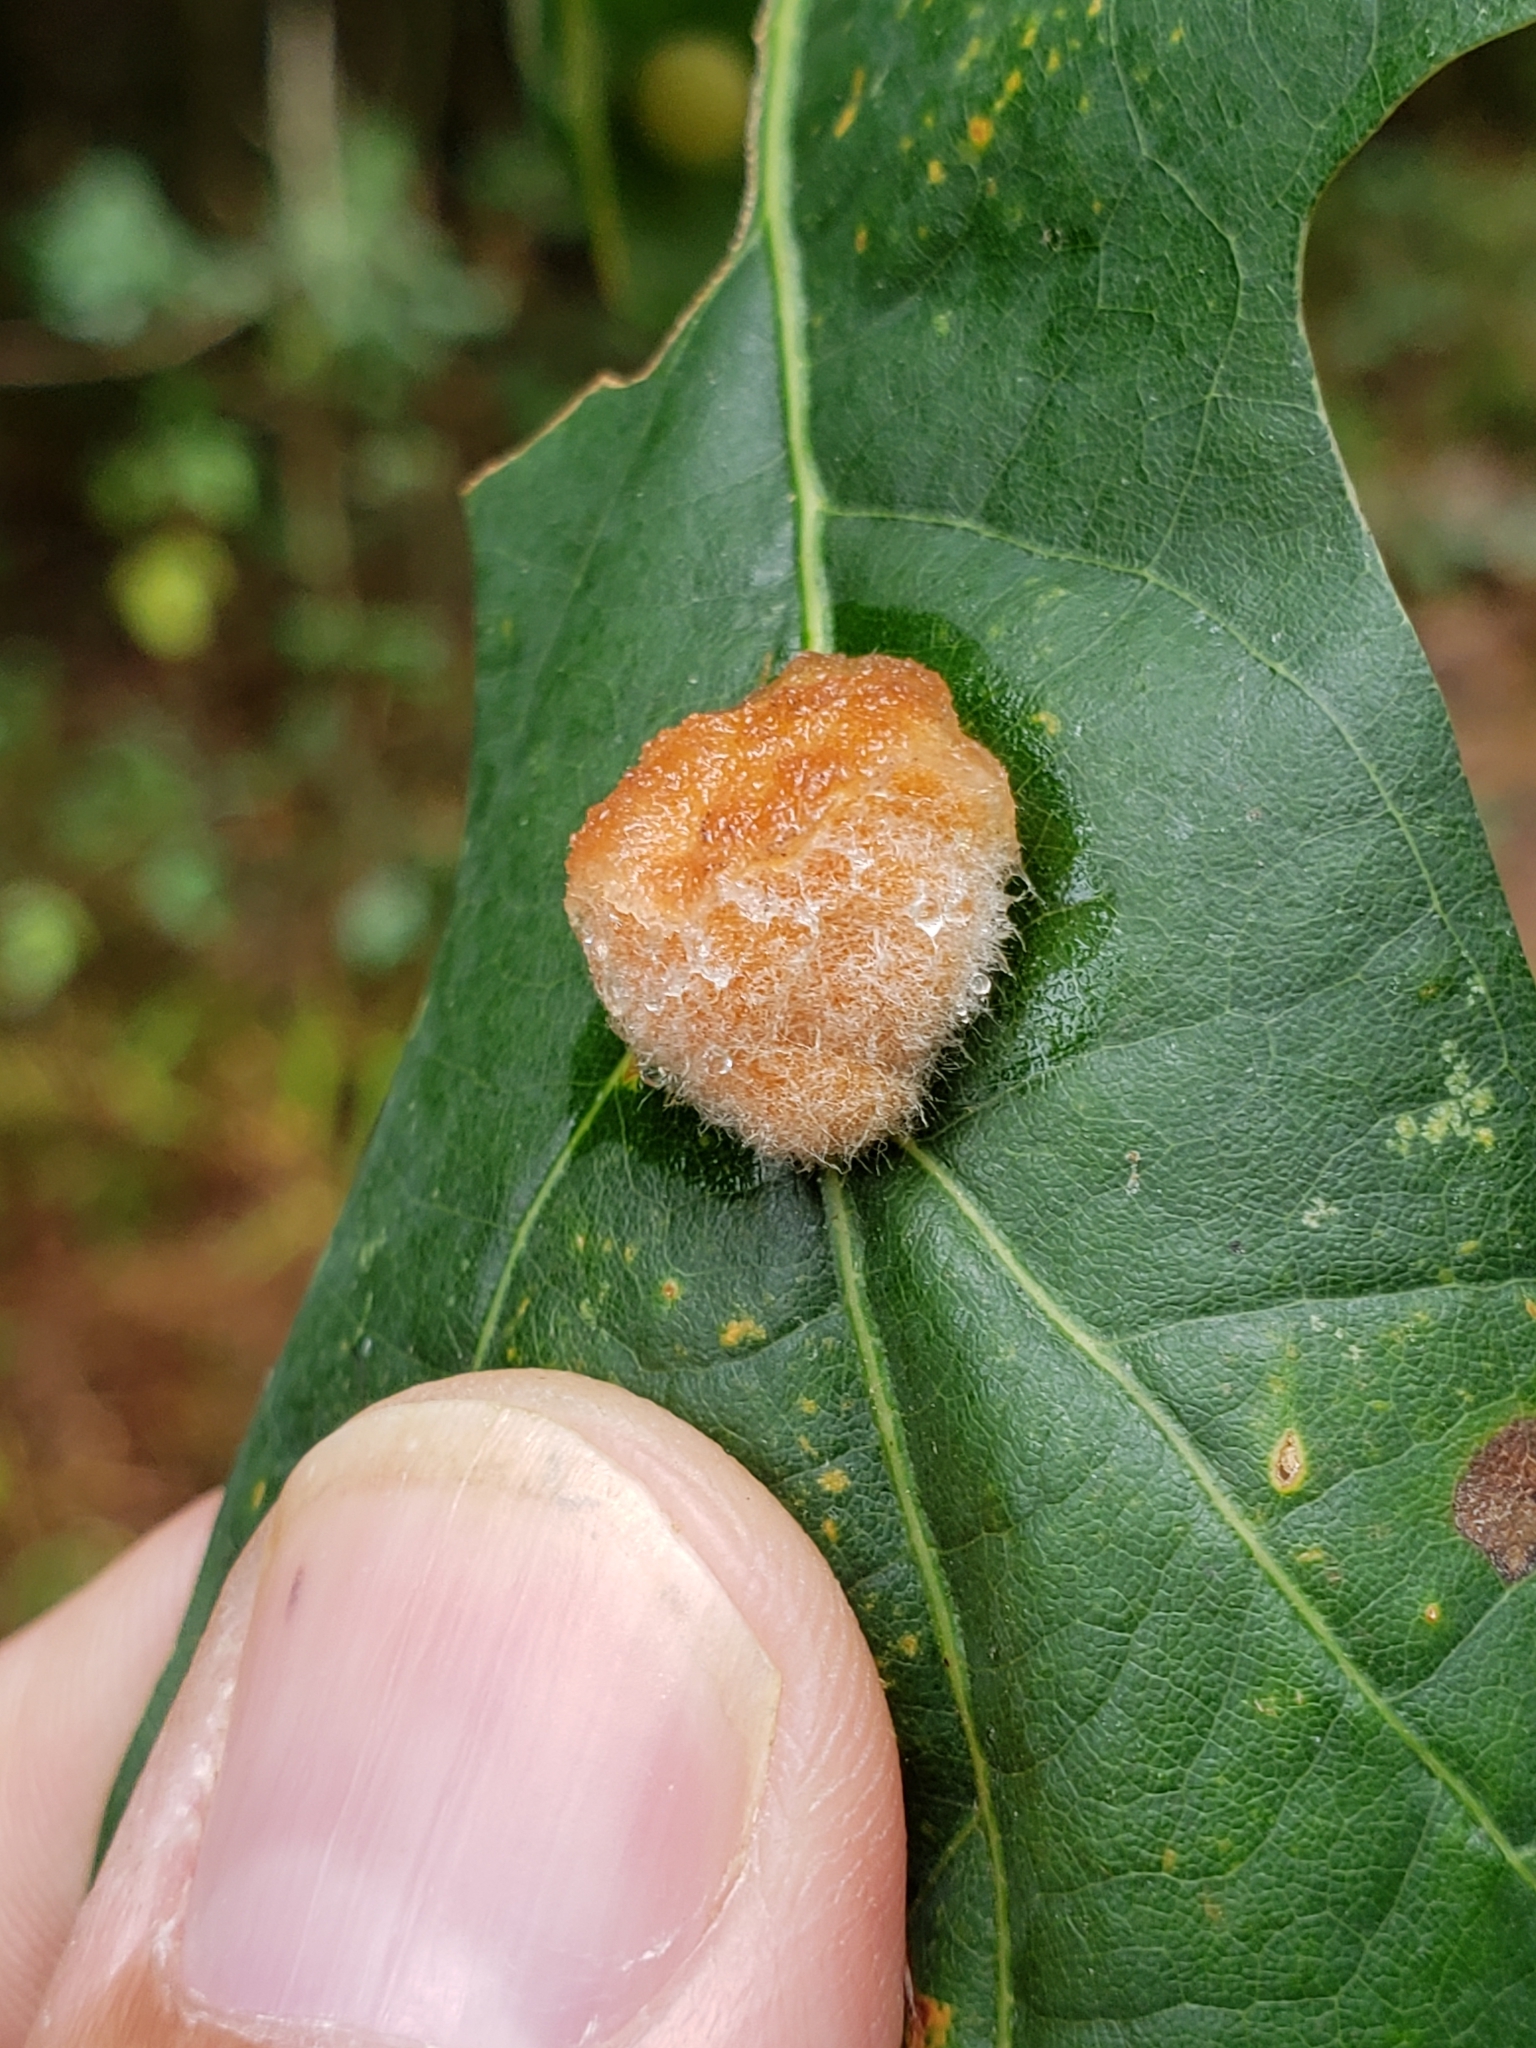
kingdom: Animalia
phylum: Arthropoda
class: Insecta
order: Hymenoptera
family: Cynipidae
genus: Andricus
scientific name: Andricus quercusflocci
